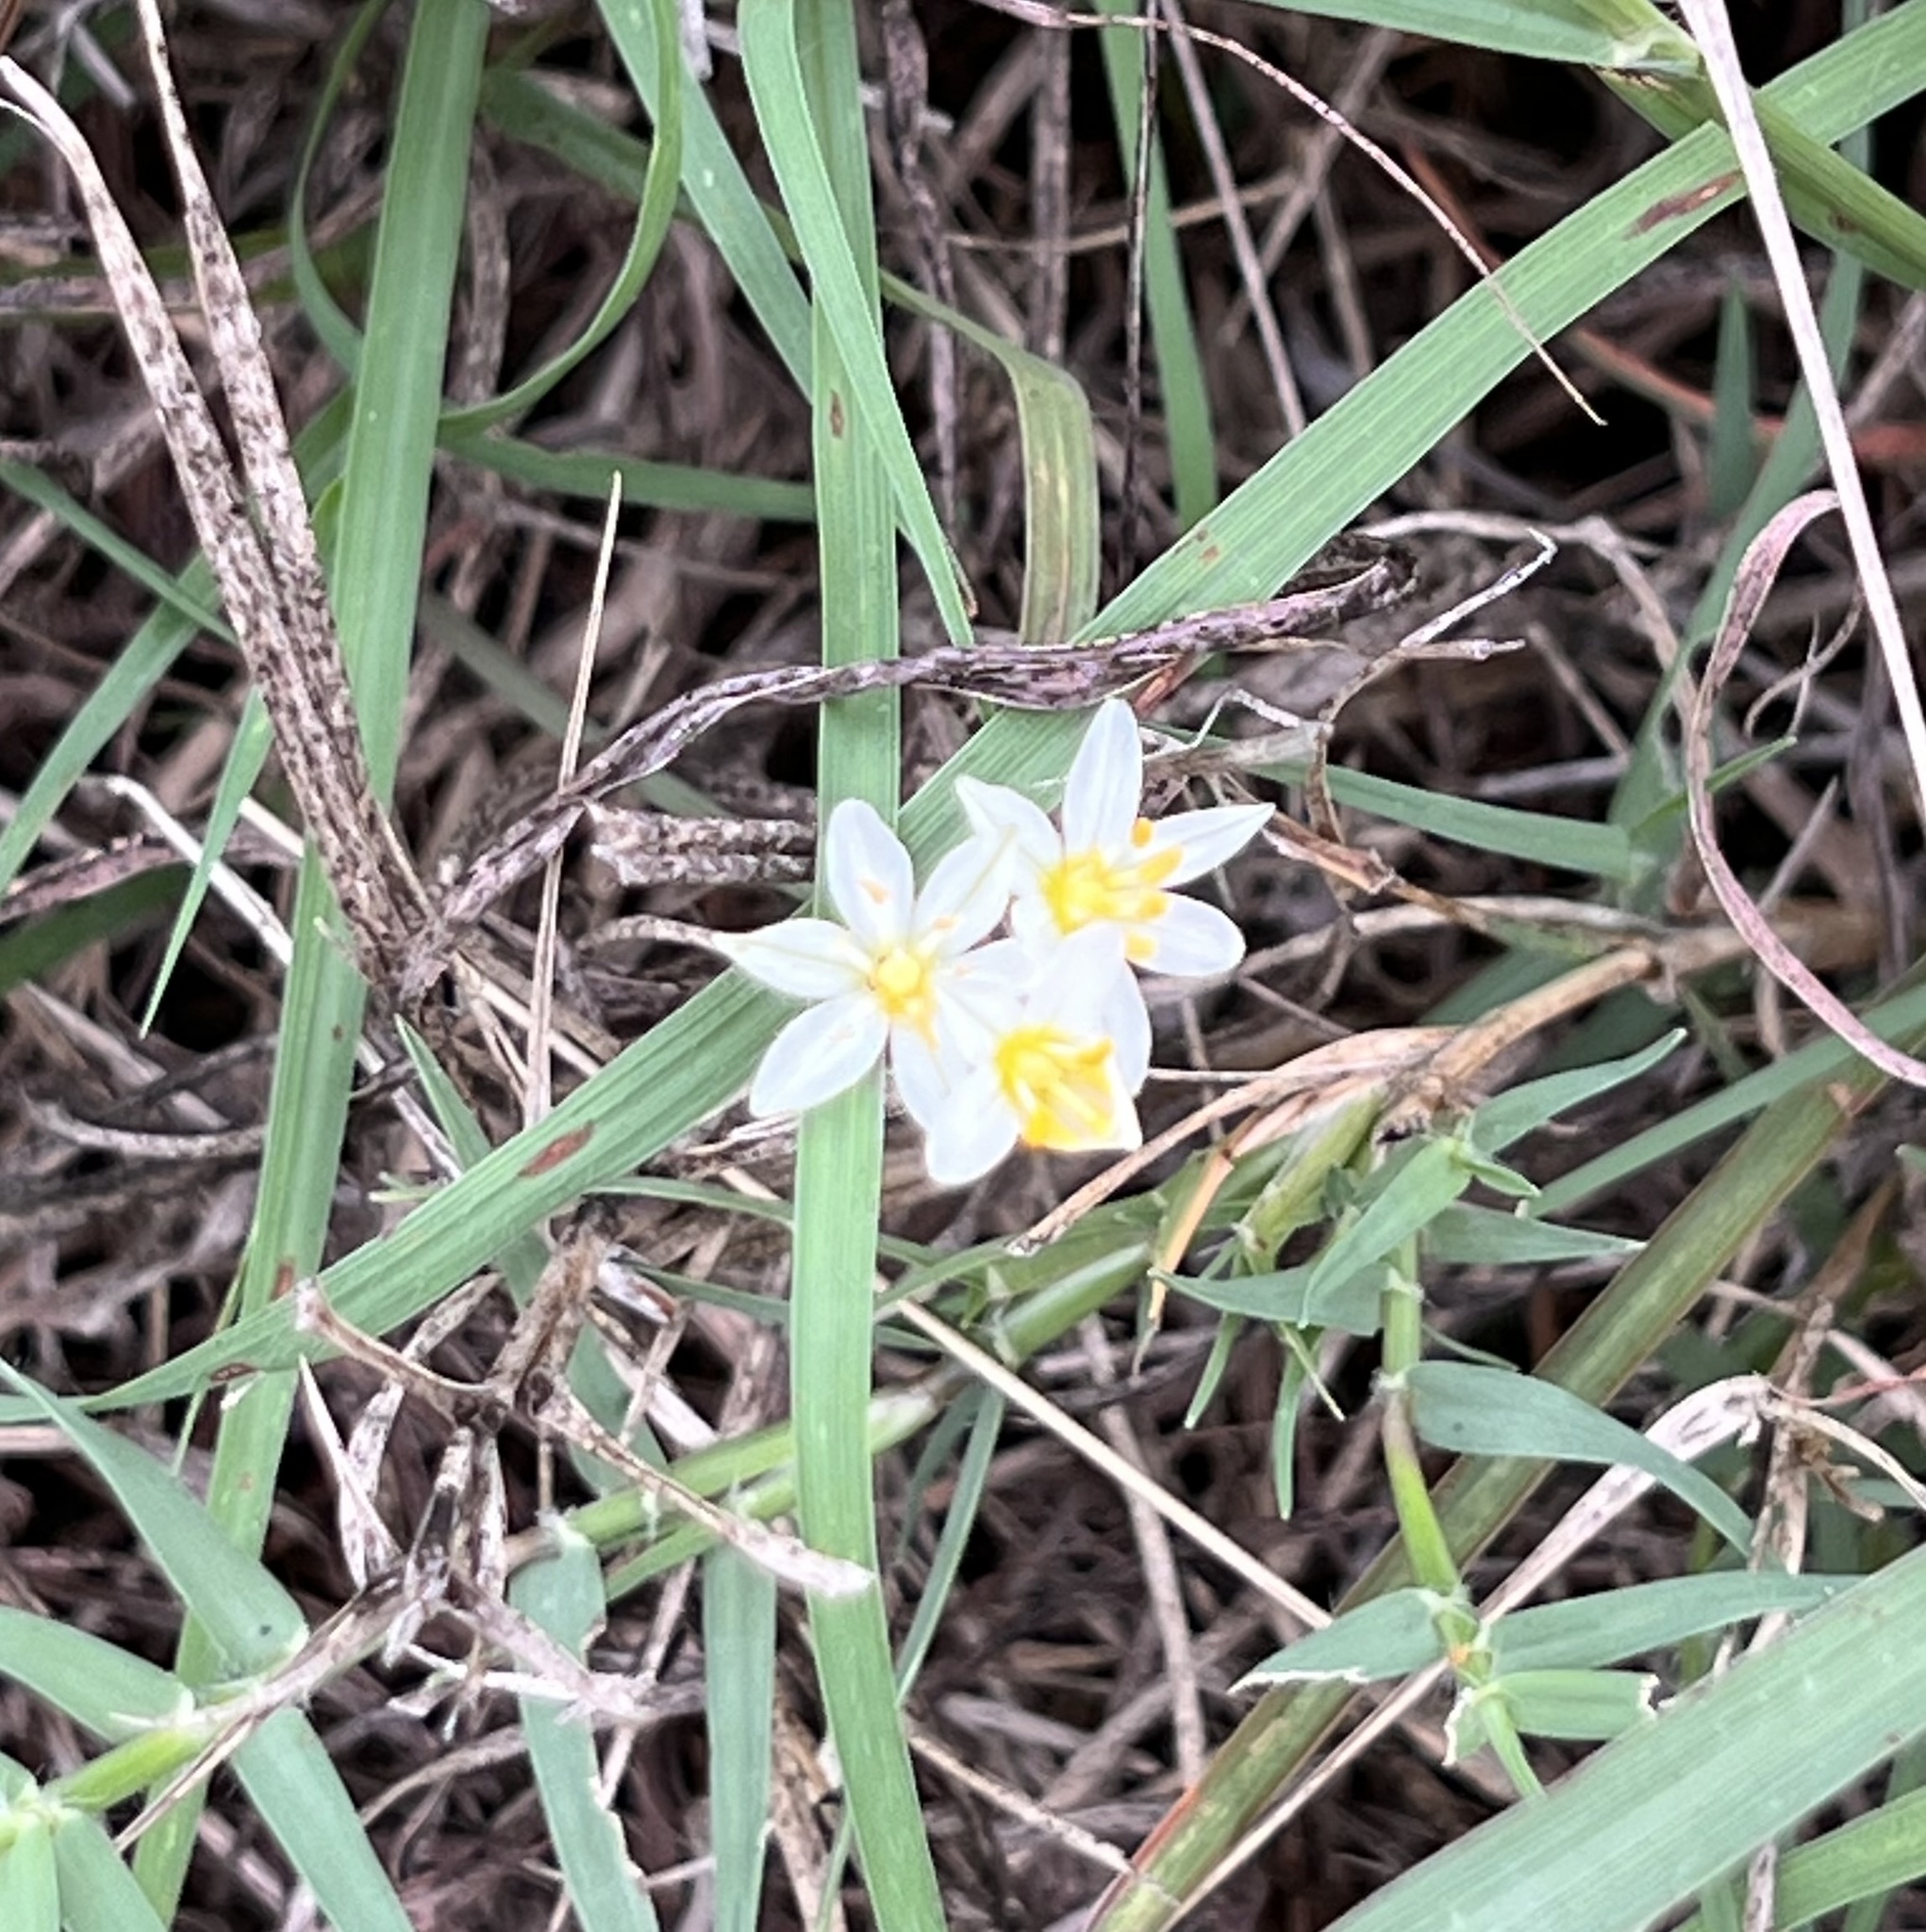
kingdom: Plantae
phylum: Tracheophyta
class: Liliopsida
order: Asparagales
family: Amaryllidaceae
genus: Nothoscordum
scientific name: Nothoscordum bivalve
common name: Crow-poison
